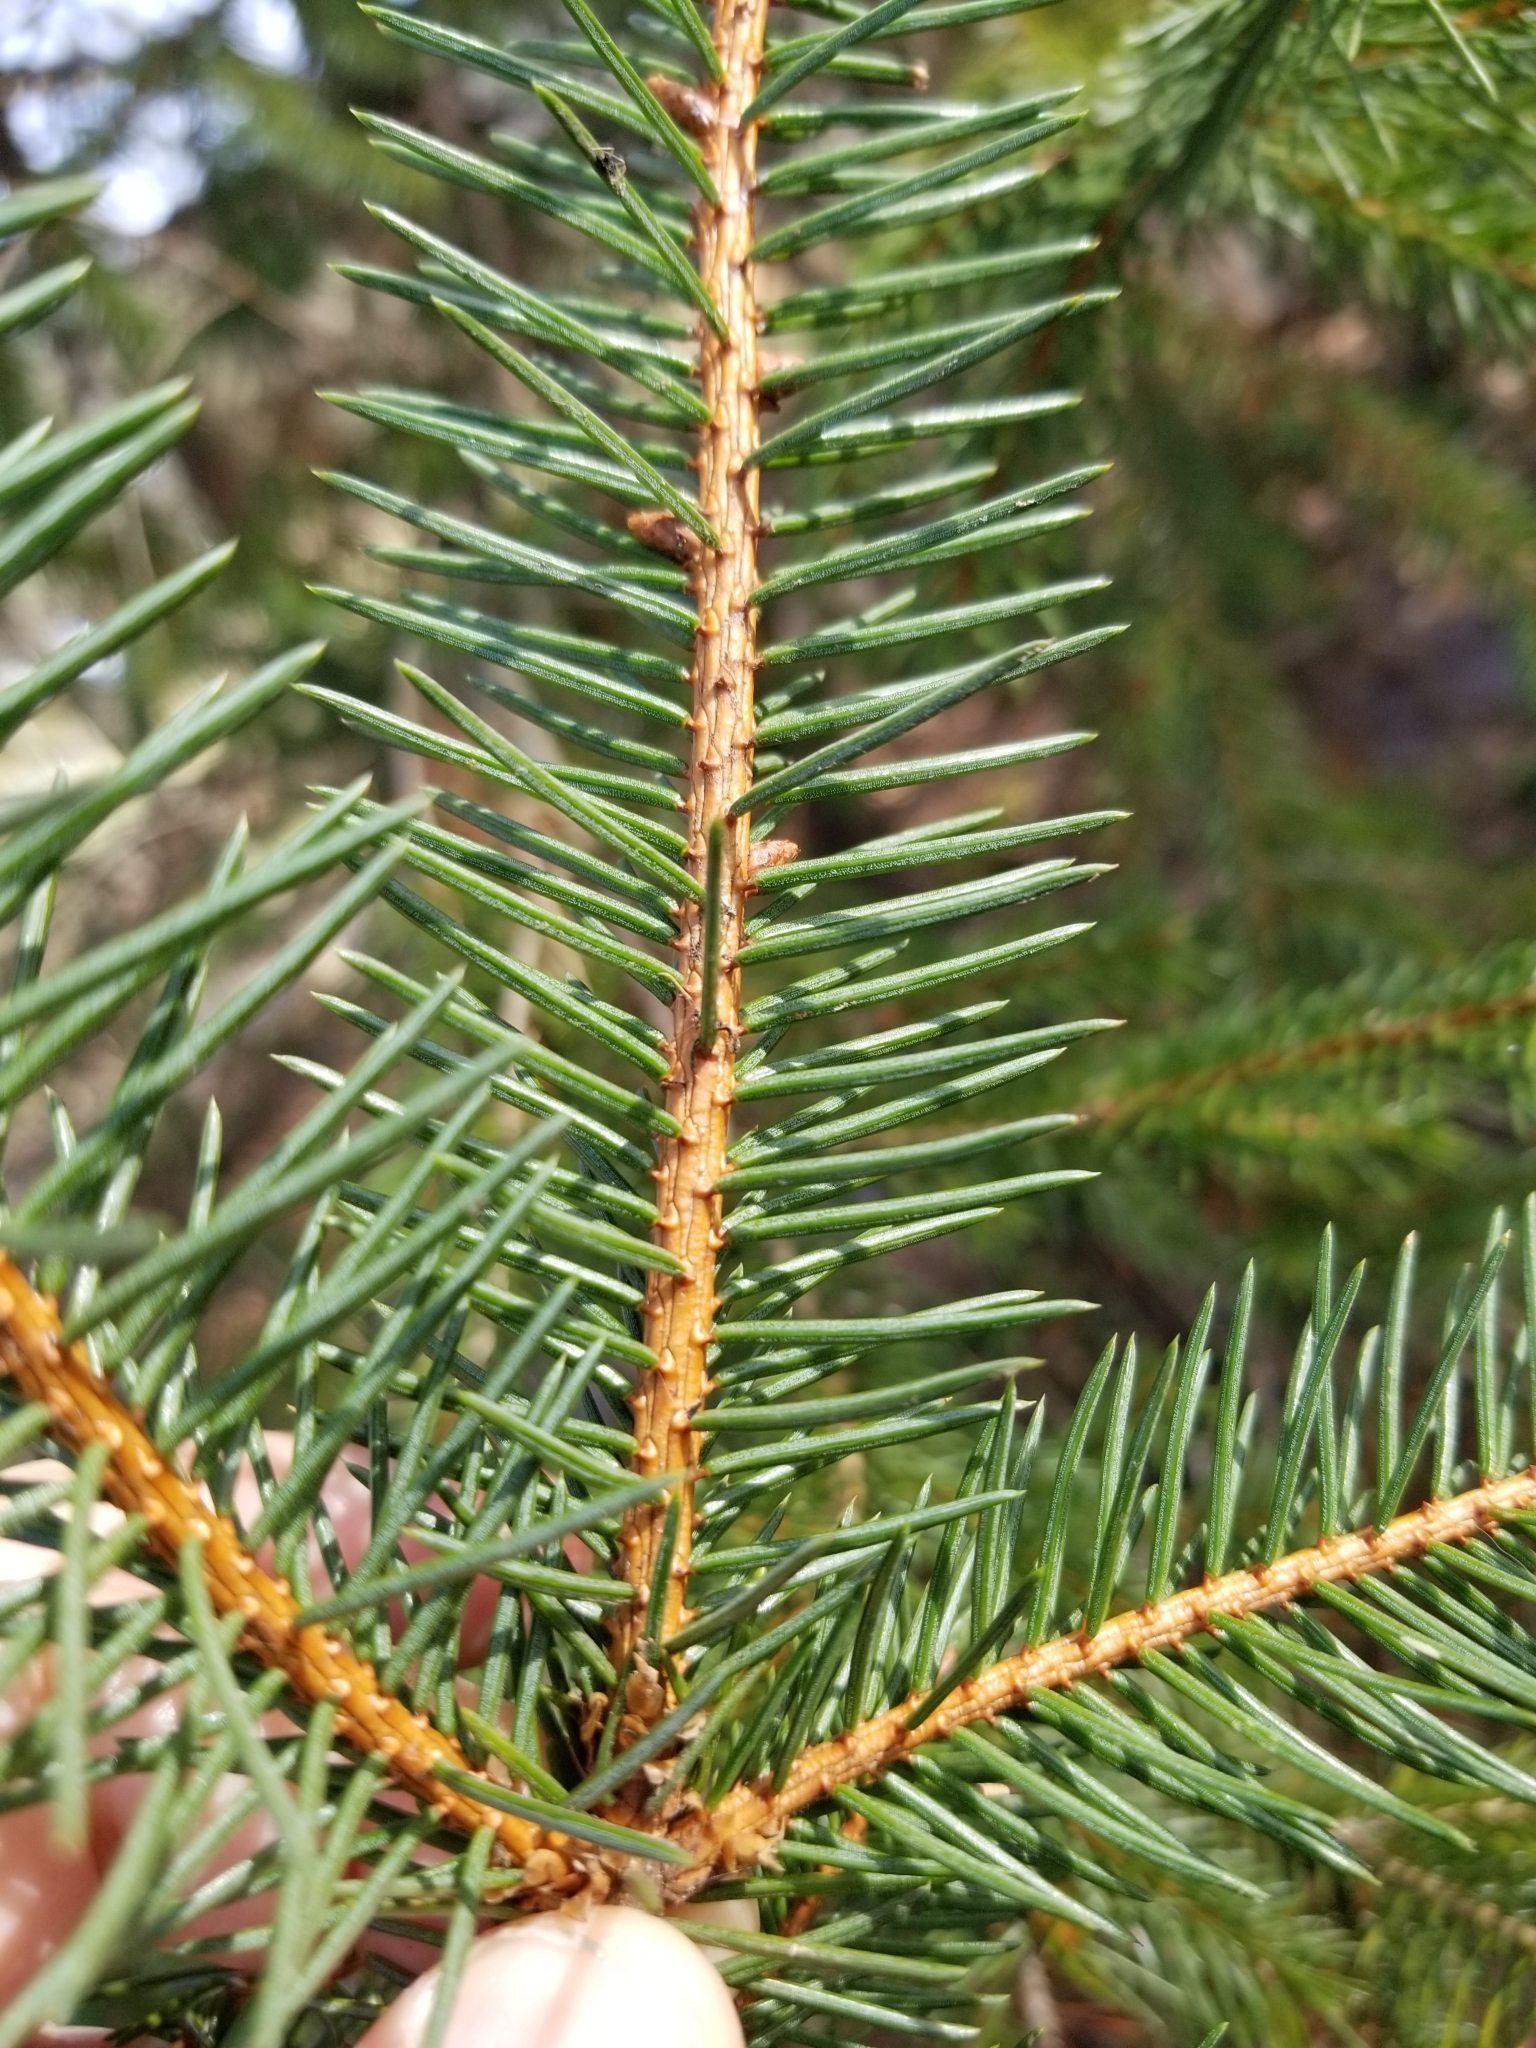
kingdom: Plantae
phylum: Tracheophyta
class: Pinopsida
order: Pinales
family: Pinaceae
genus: Picea
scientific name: Picea abies
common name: Norway spruce
